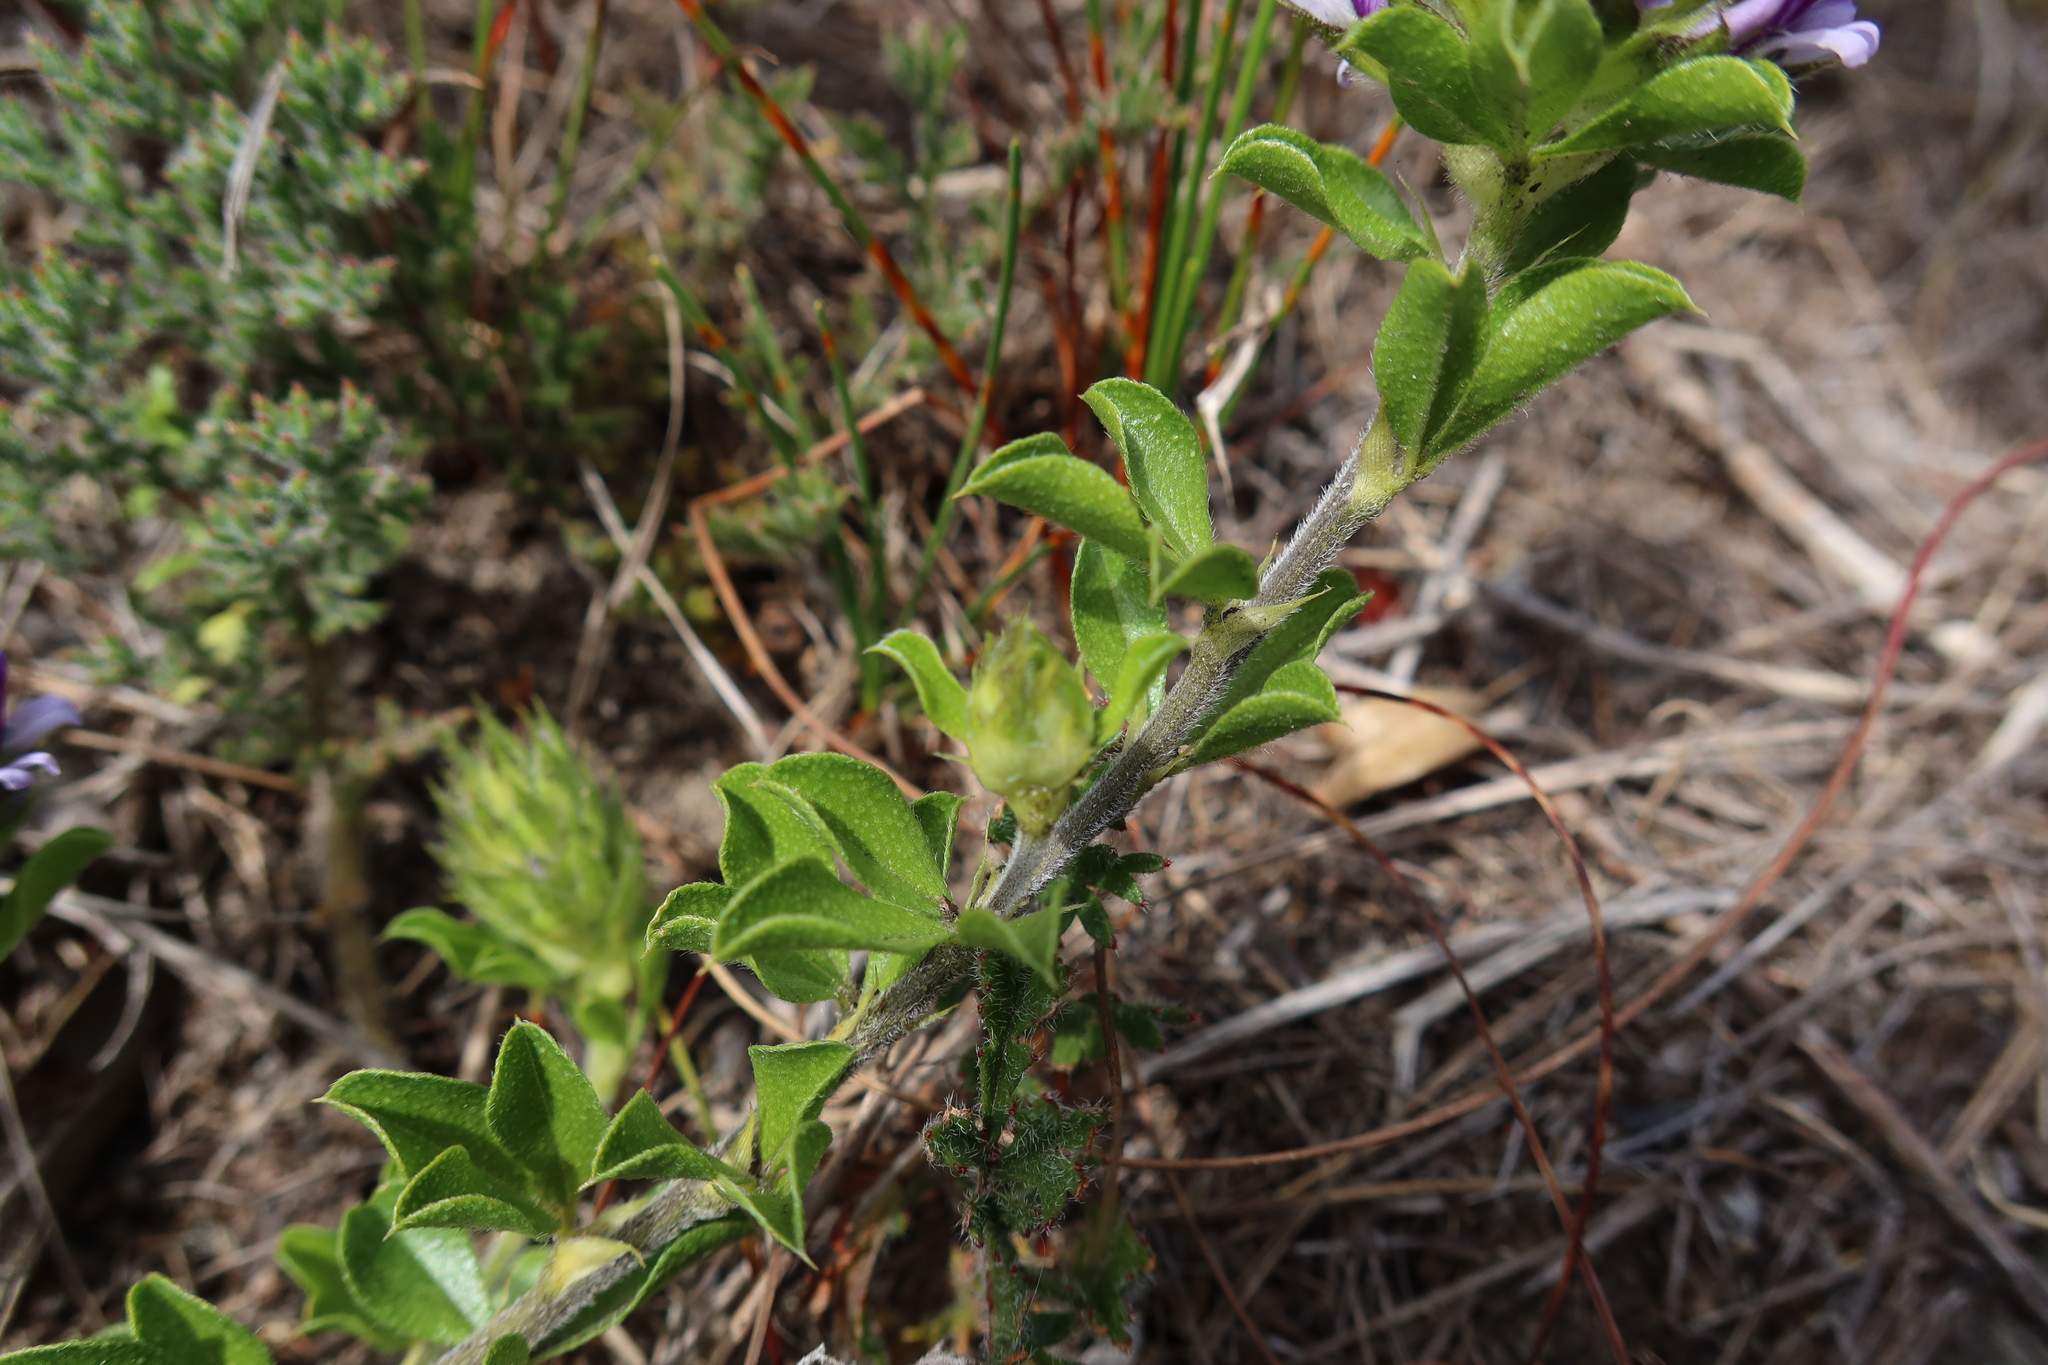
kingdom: Plantae
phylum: Tracheophyta
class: Magnoliopsida
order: Fabales
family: Fabaceae
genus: Psoralea
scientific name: Psoralea fruticans
